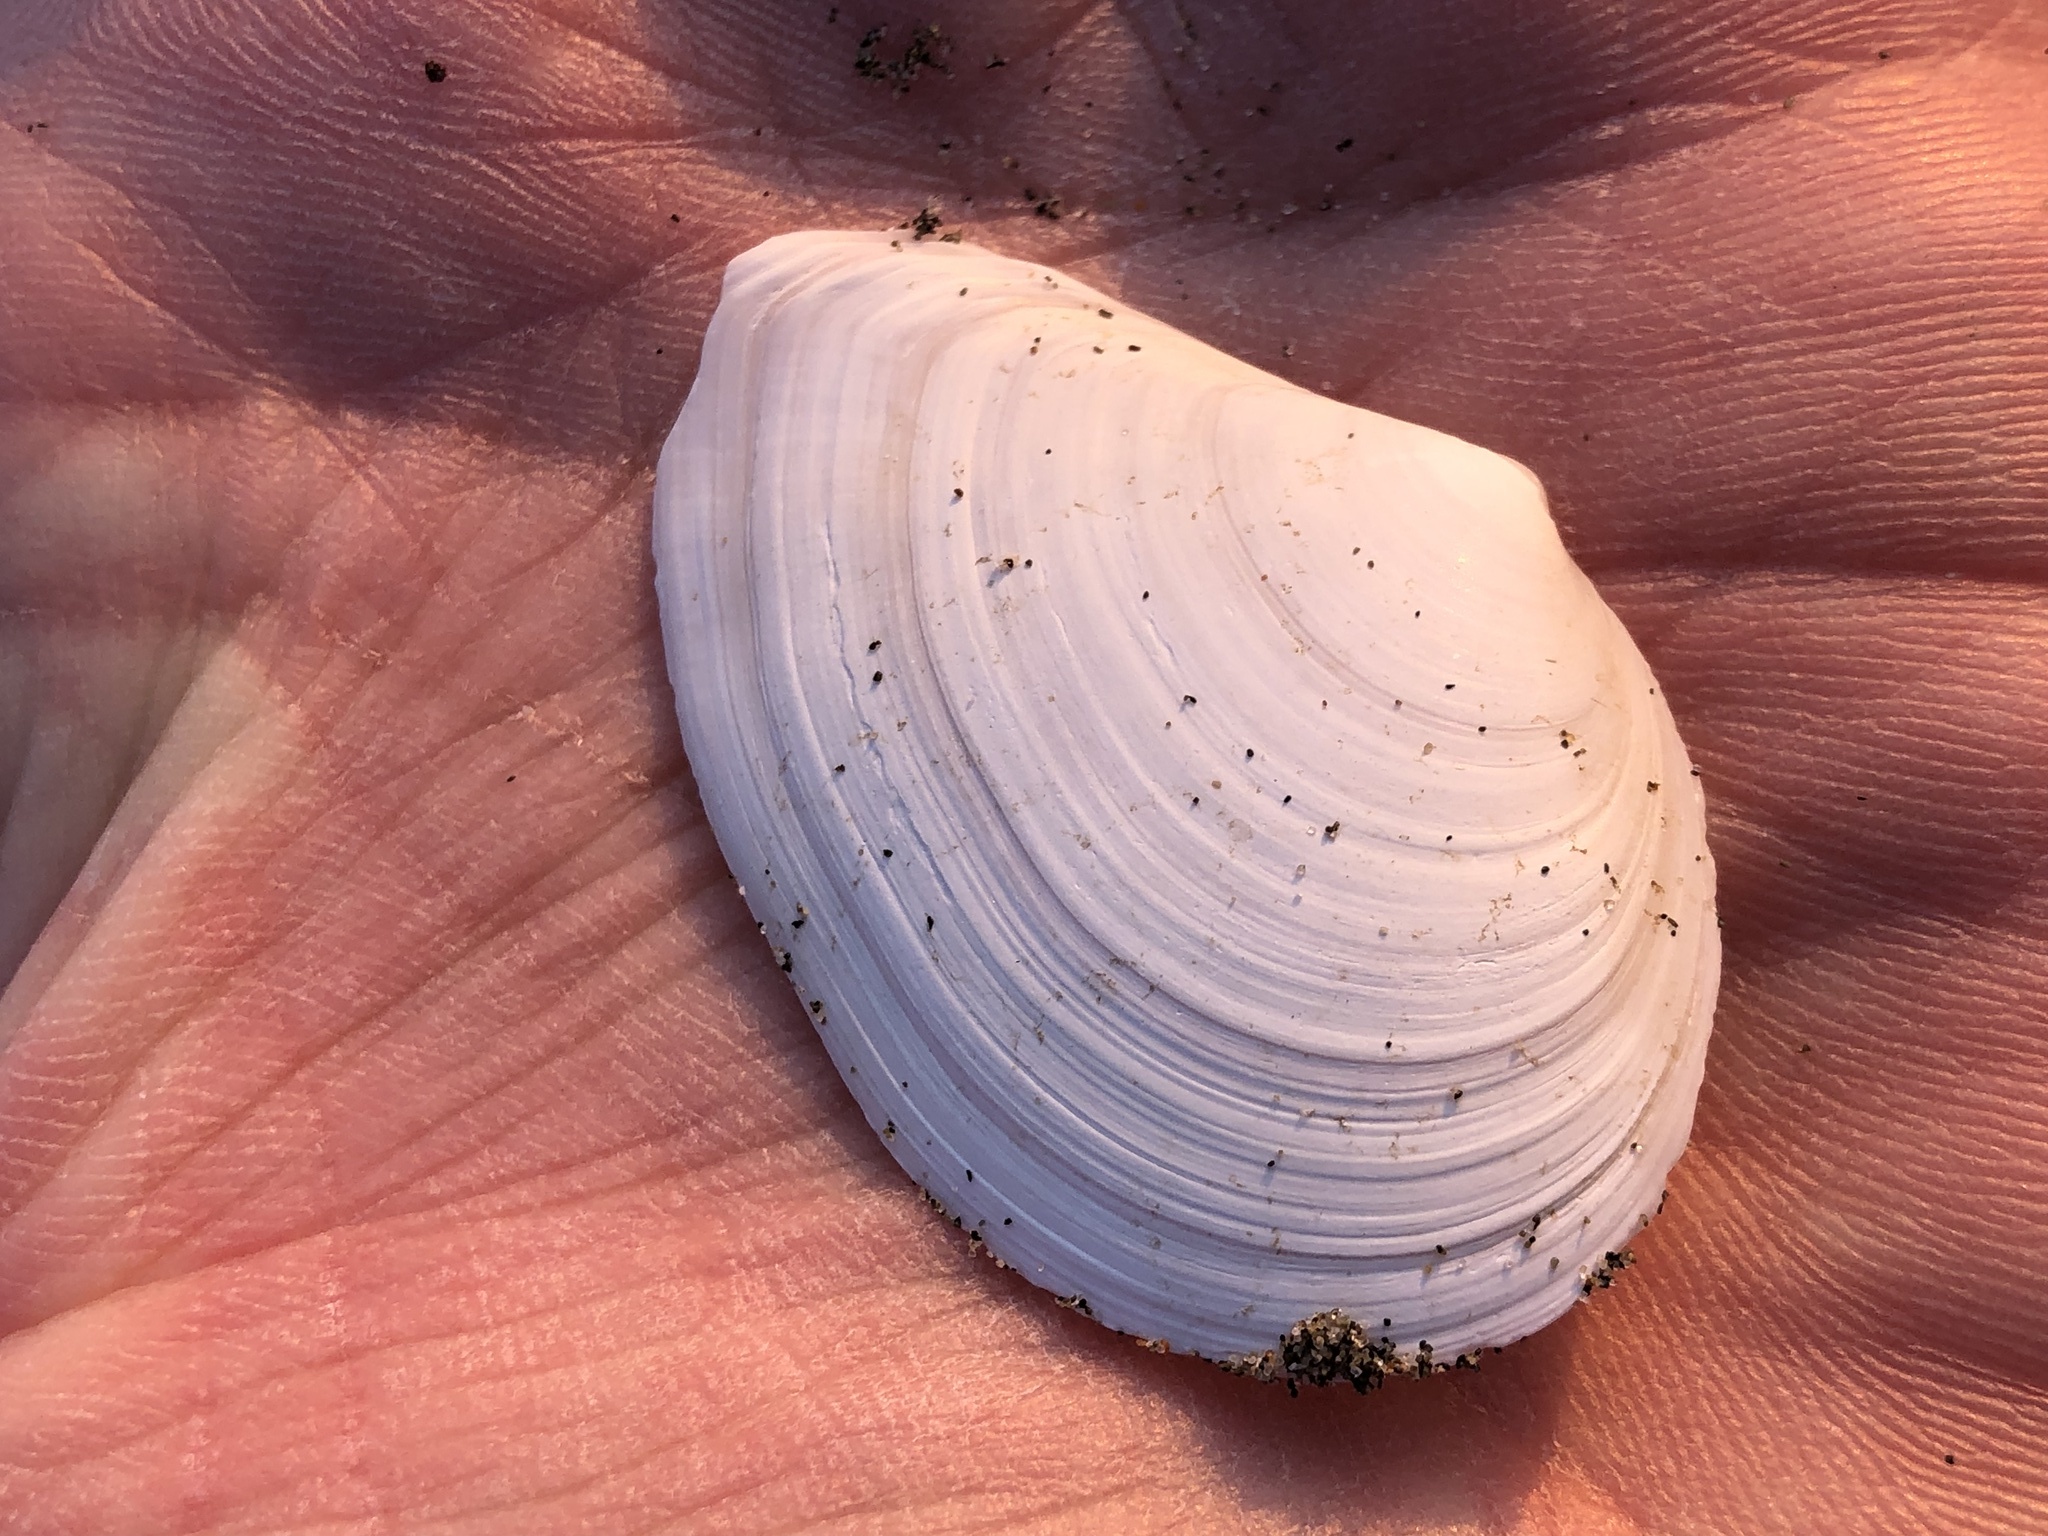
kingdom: Animalia
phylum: Mollusca
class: Bivalvia
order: Cardiida
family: Tellinidae
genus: Macoma
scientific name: Macoma nasuta
